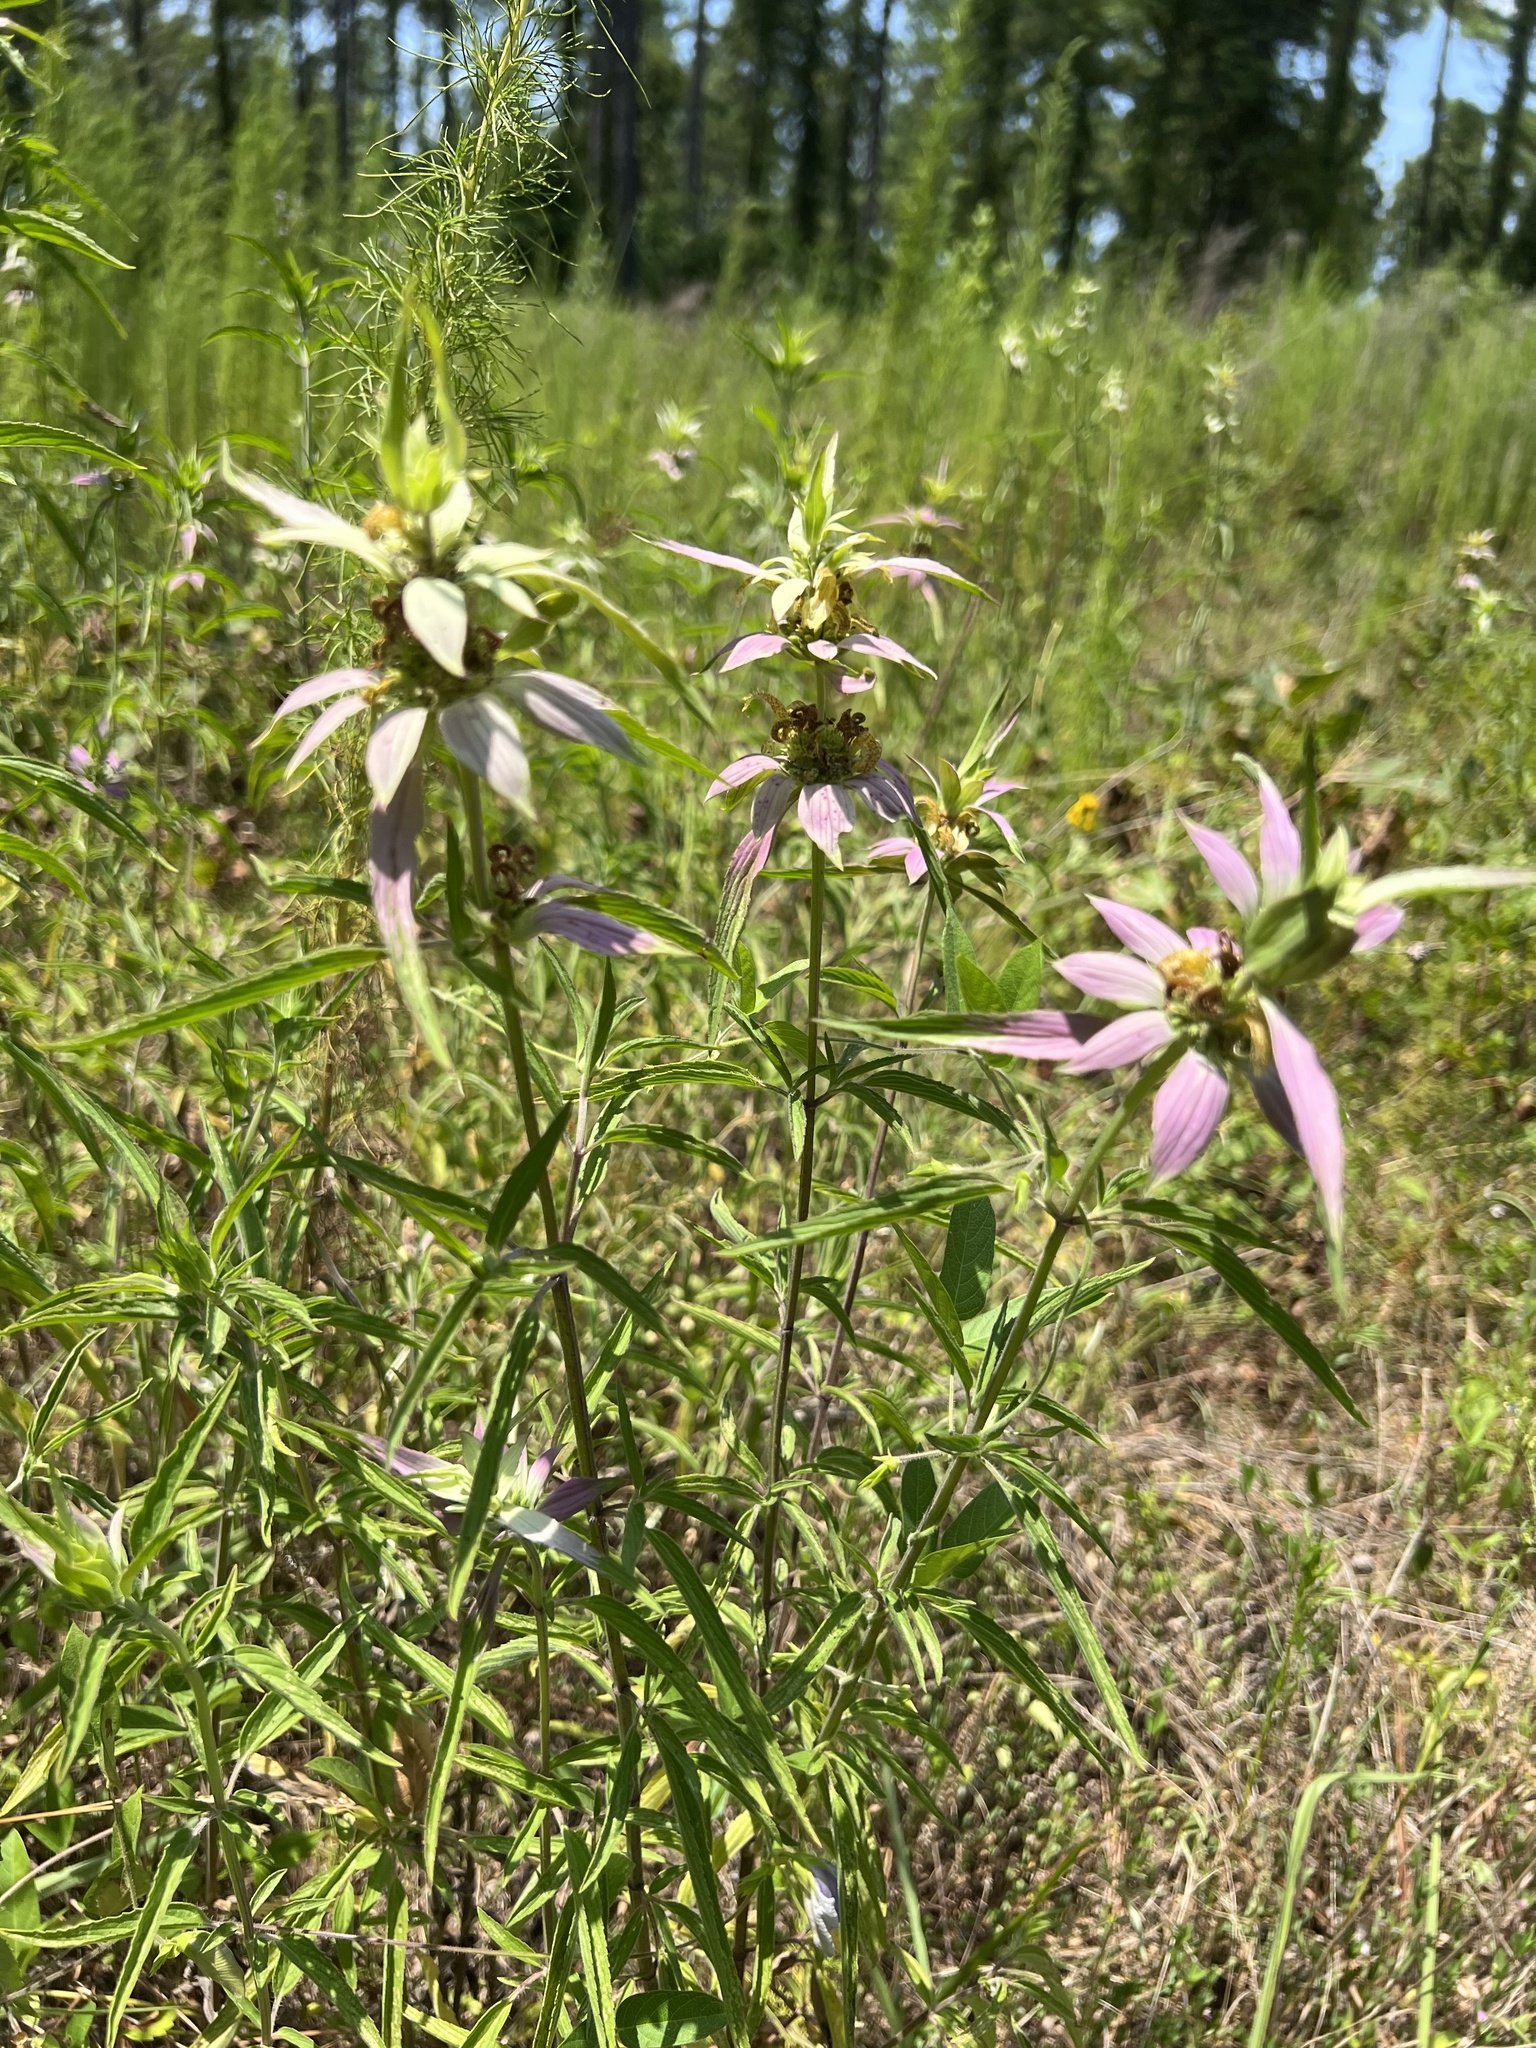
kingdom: Plantae
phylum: Tracheophyta
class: Magnoliopsida
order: Lamiales
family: Lamiaceae
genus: Monarda
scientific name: Monarda punctata
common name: Dotted monarda
